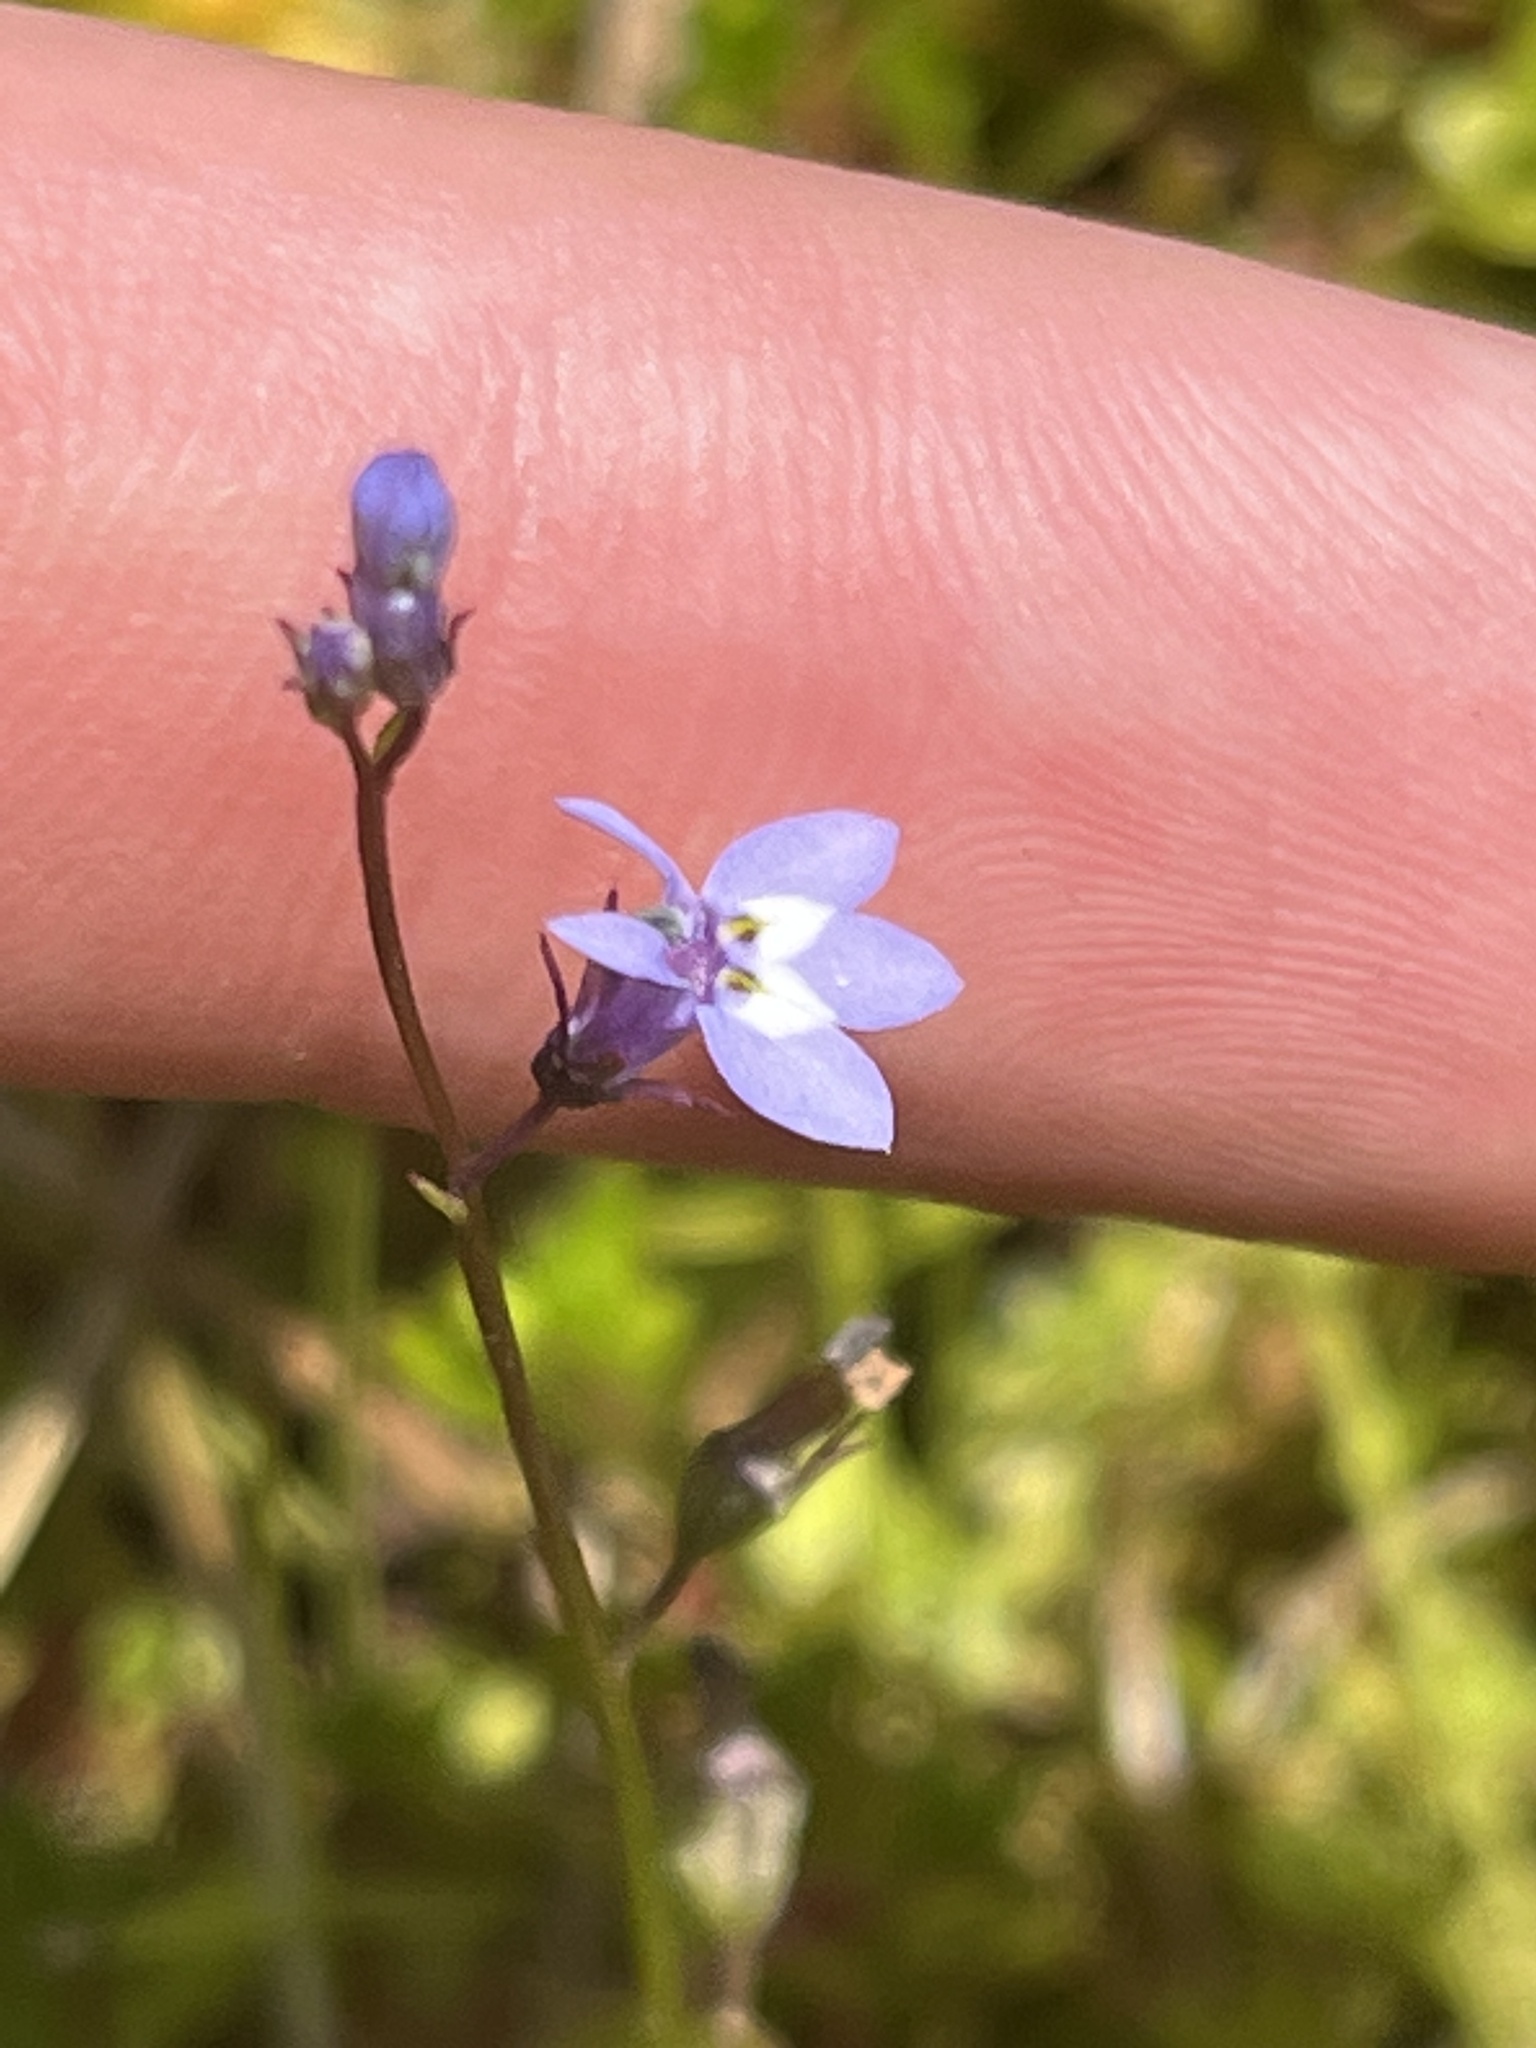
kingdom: Plantae
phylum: Tracheophyta
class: Magnoliopsida
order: Asterales
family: Campanulaceae
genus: Lobelia
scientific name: Lobelia feayana
